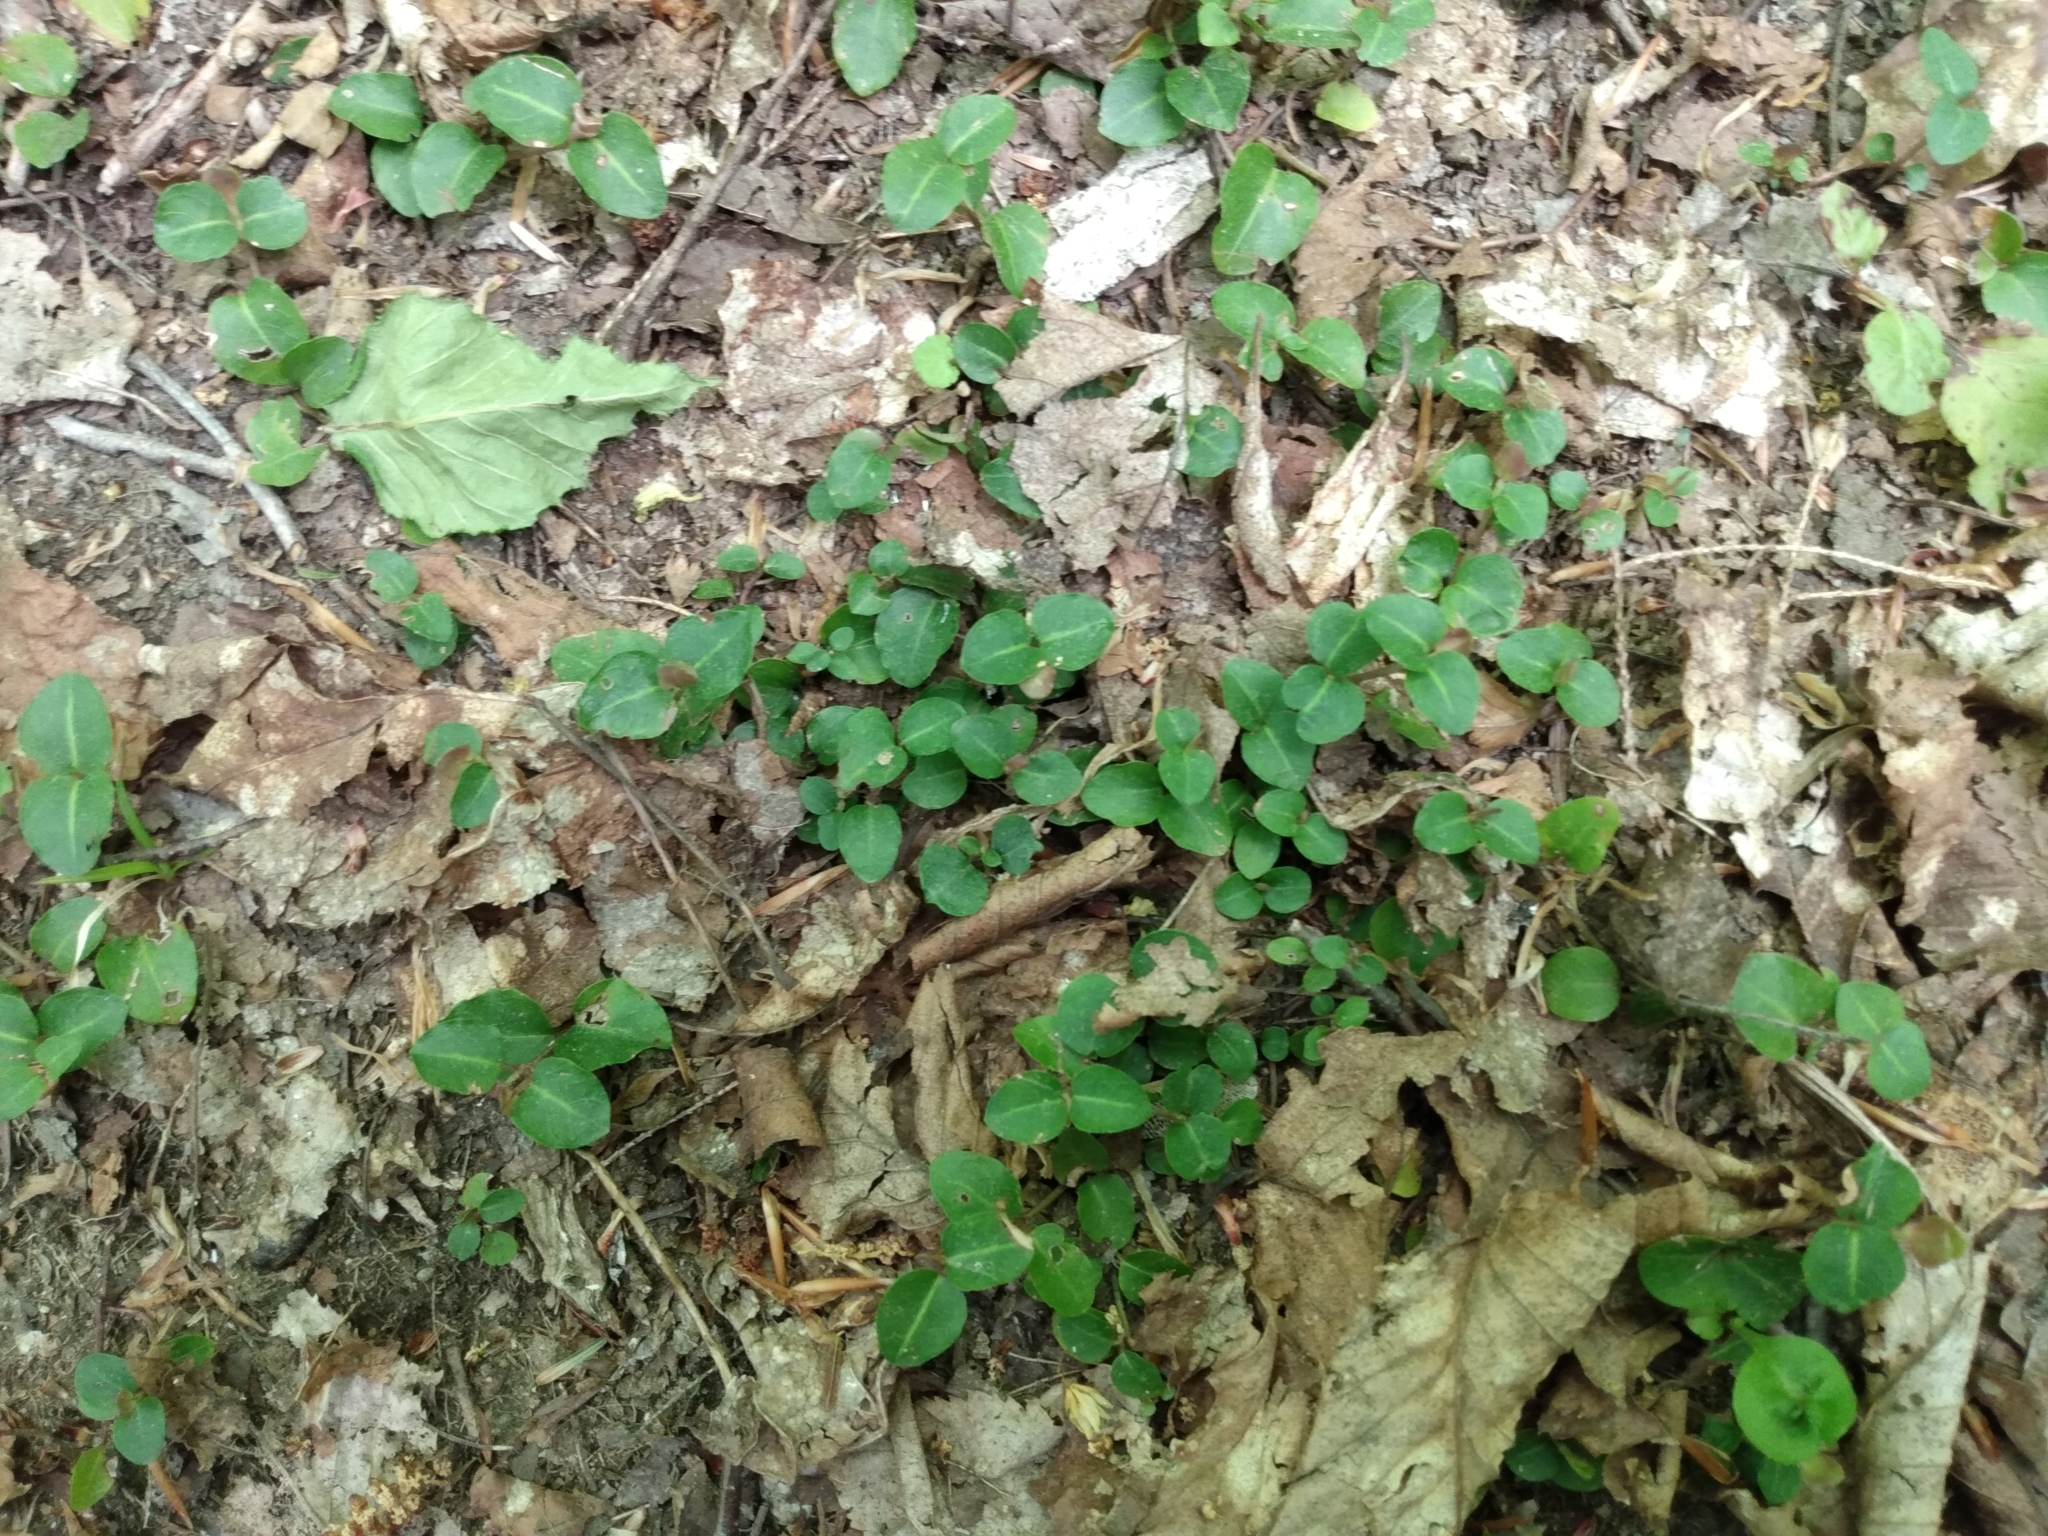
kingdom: Plantae
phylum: Tracheophyta
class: Magnoliopsida
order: Gentianales
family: Rubiaceae
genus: Mitchella
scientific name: Mitchella repens
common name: Partridge-berry
